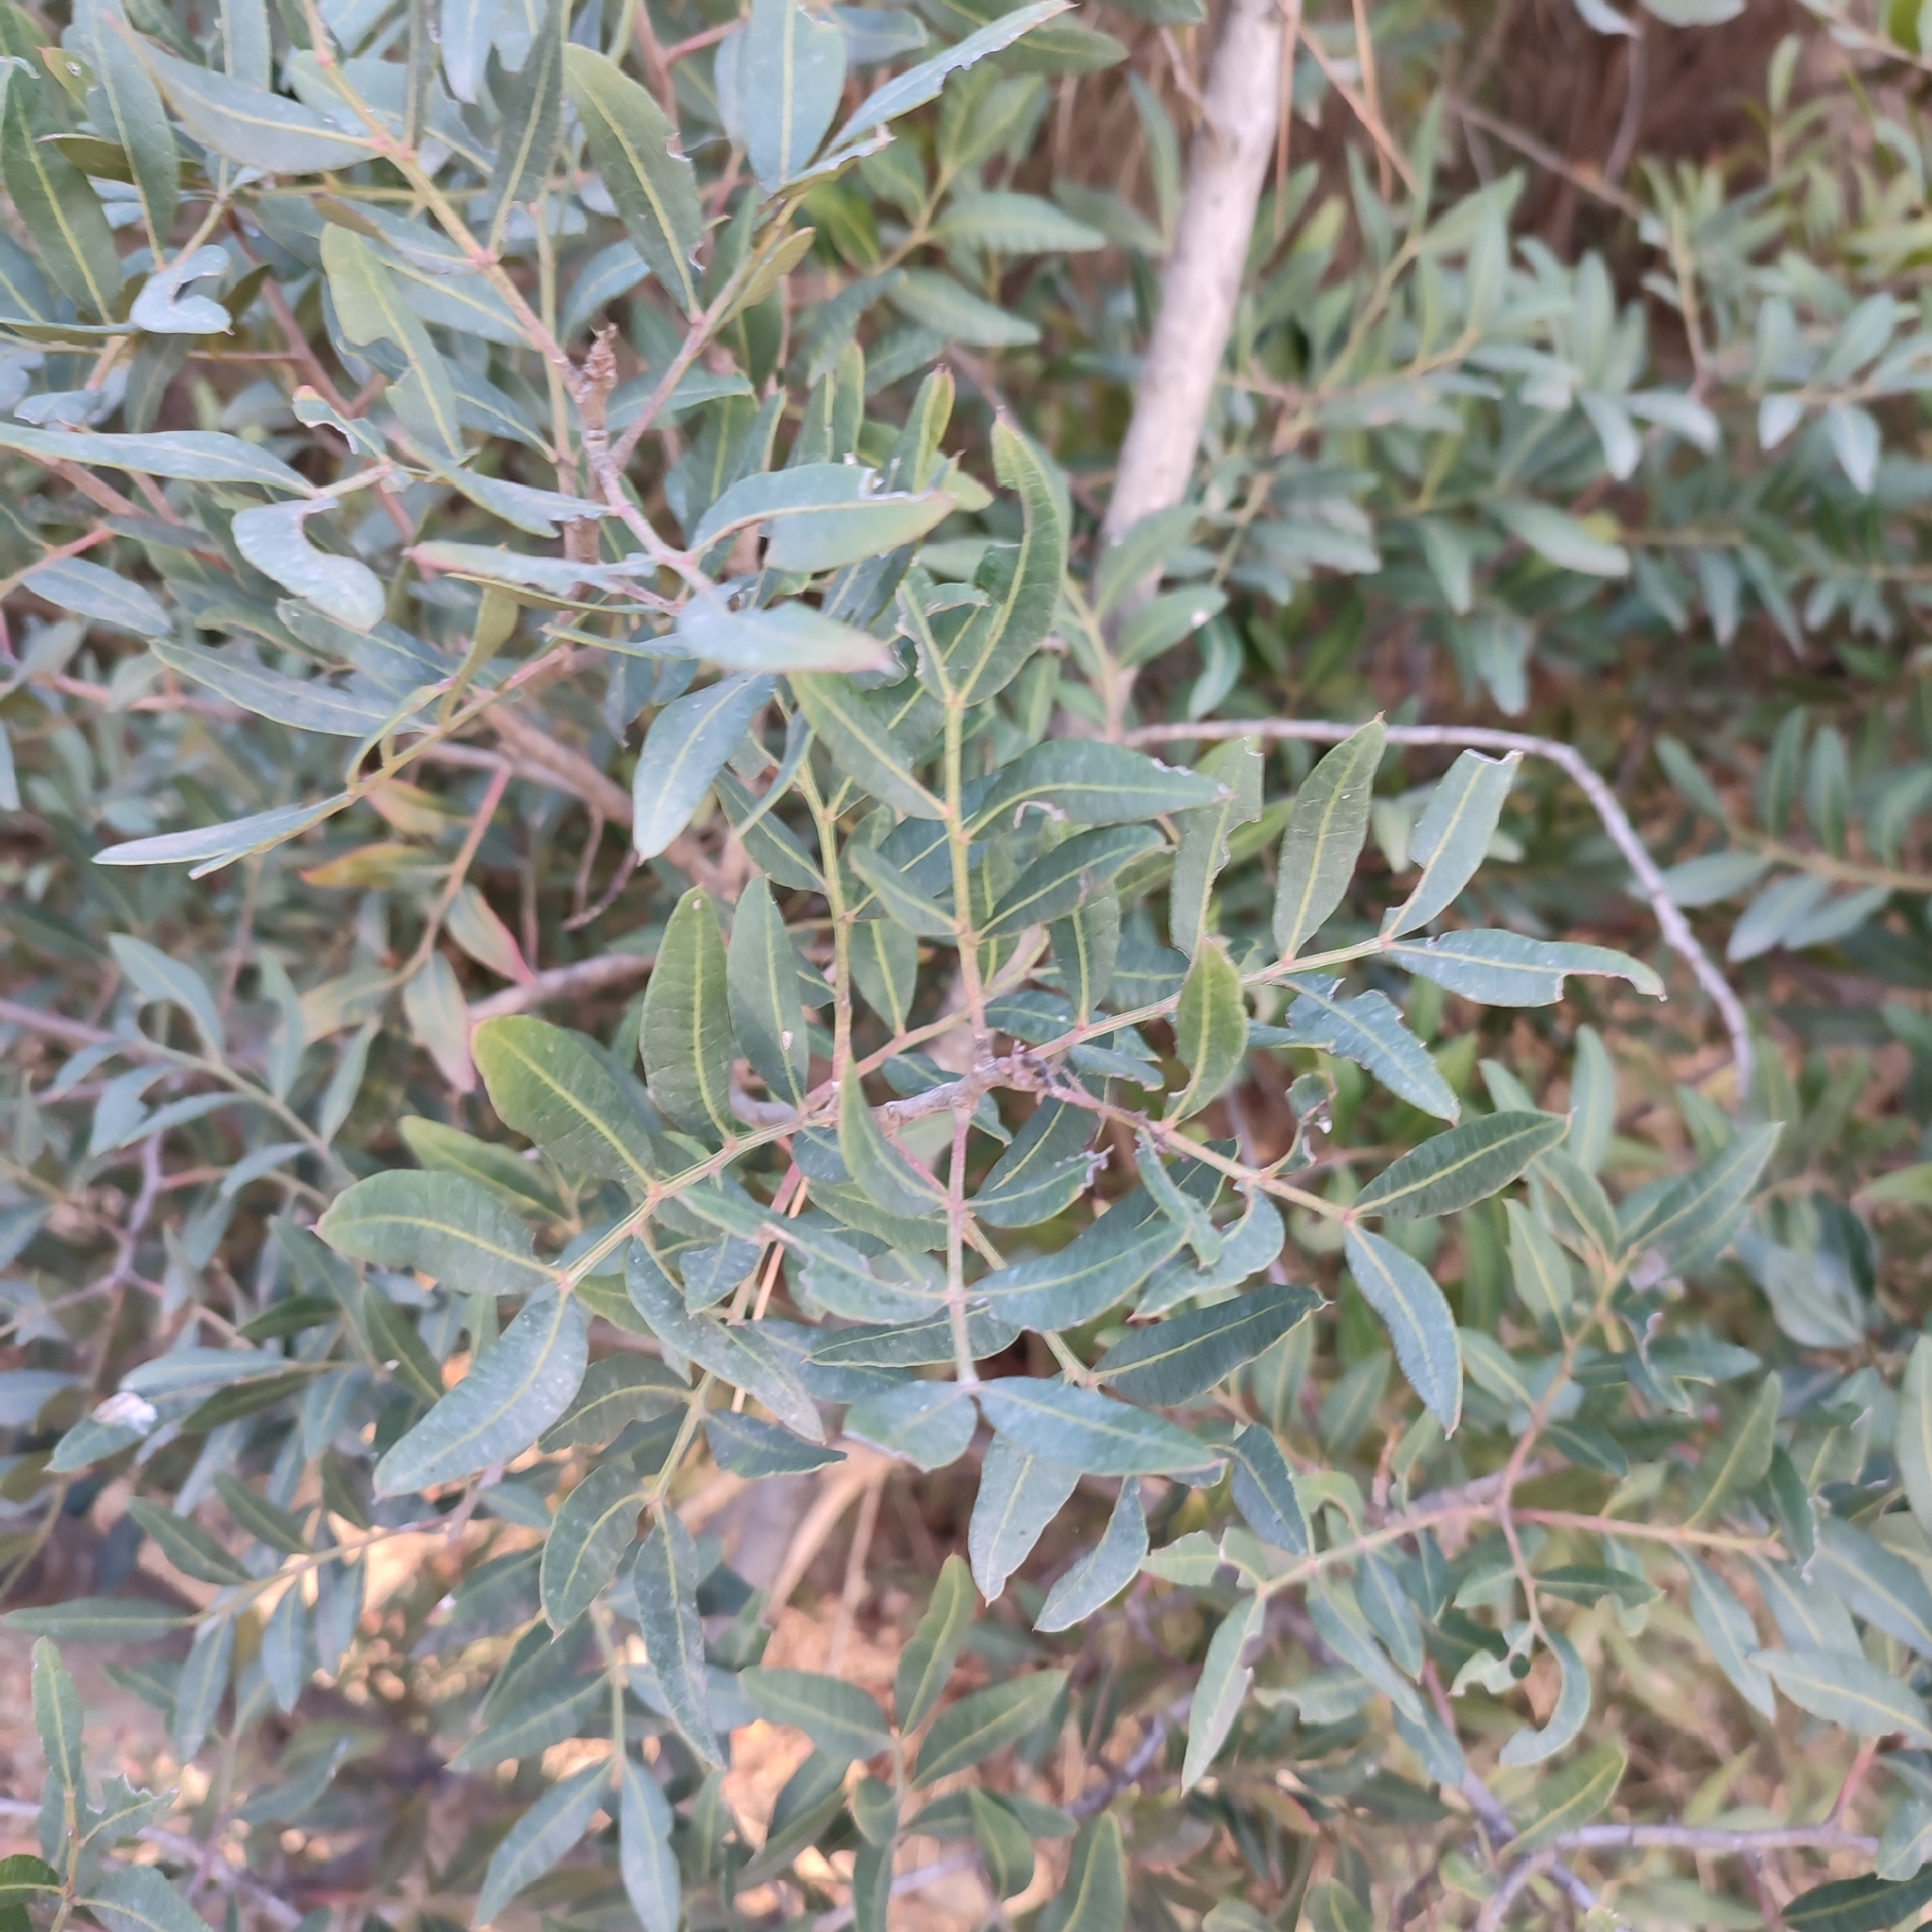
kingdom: Plantae
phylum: Tracheophyta
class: Magnoliopsida
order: Sapindales
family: Anacardiaceae
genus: Pistacia
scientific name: Pistacia lentiscus
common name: Lentisk
